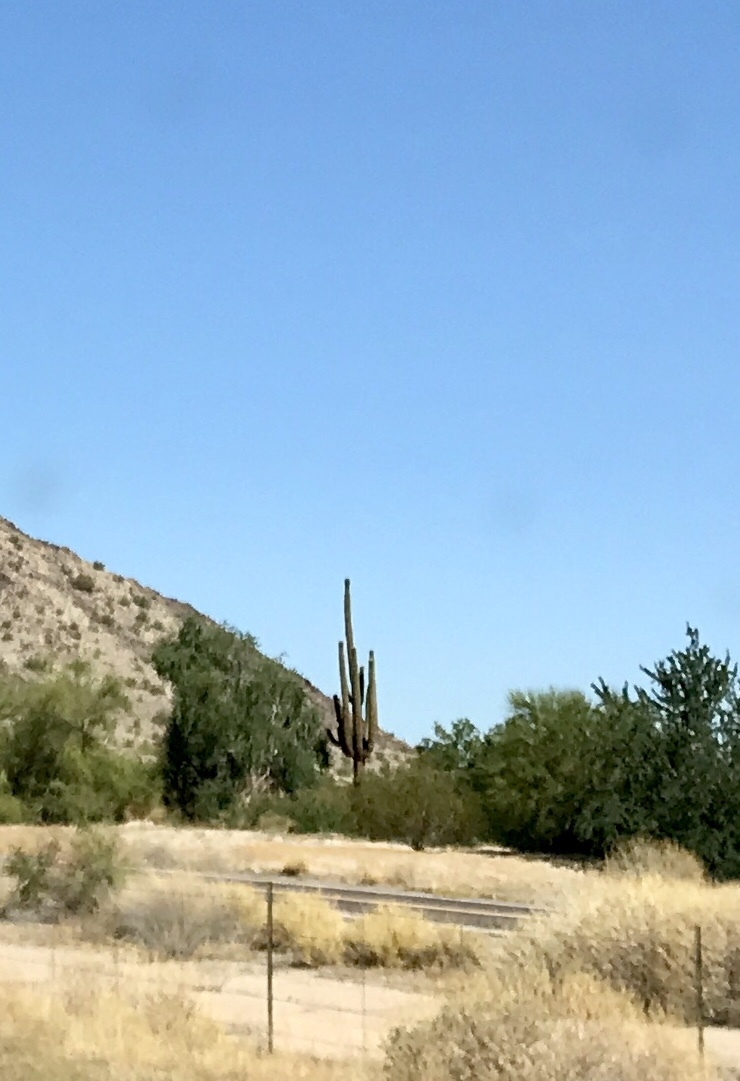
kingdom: Plantae
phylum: Tracheophyta
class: Magnoliopsida
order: Caryophyllales
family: Cactaceae
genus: Carnegiea
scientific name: Carnegiea gigantea
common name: Saguaro
